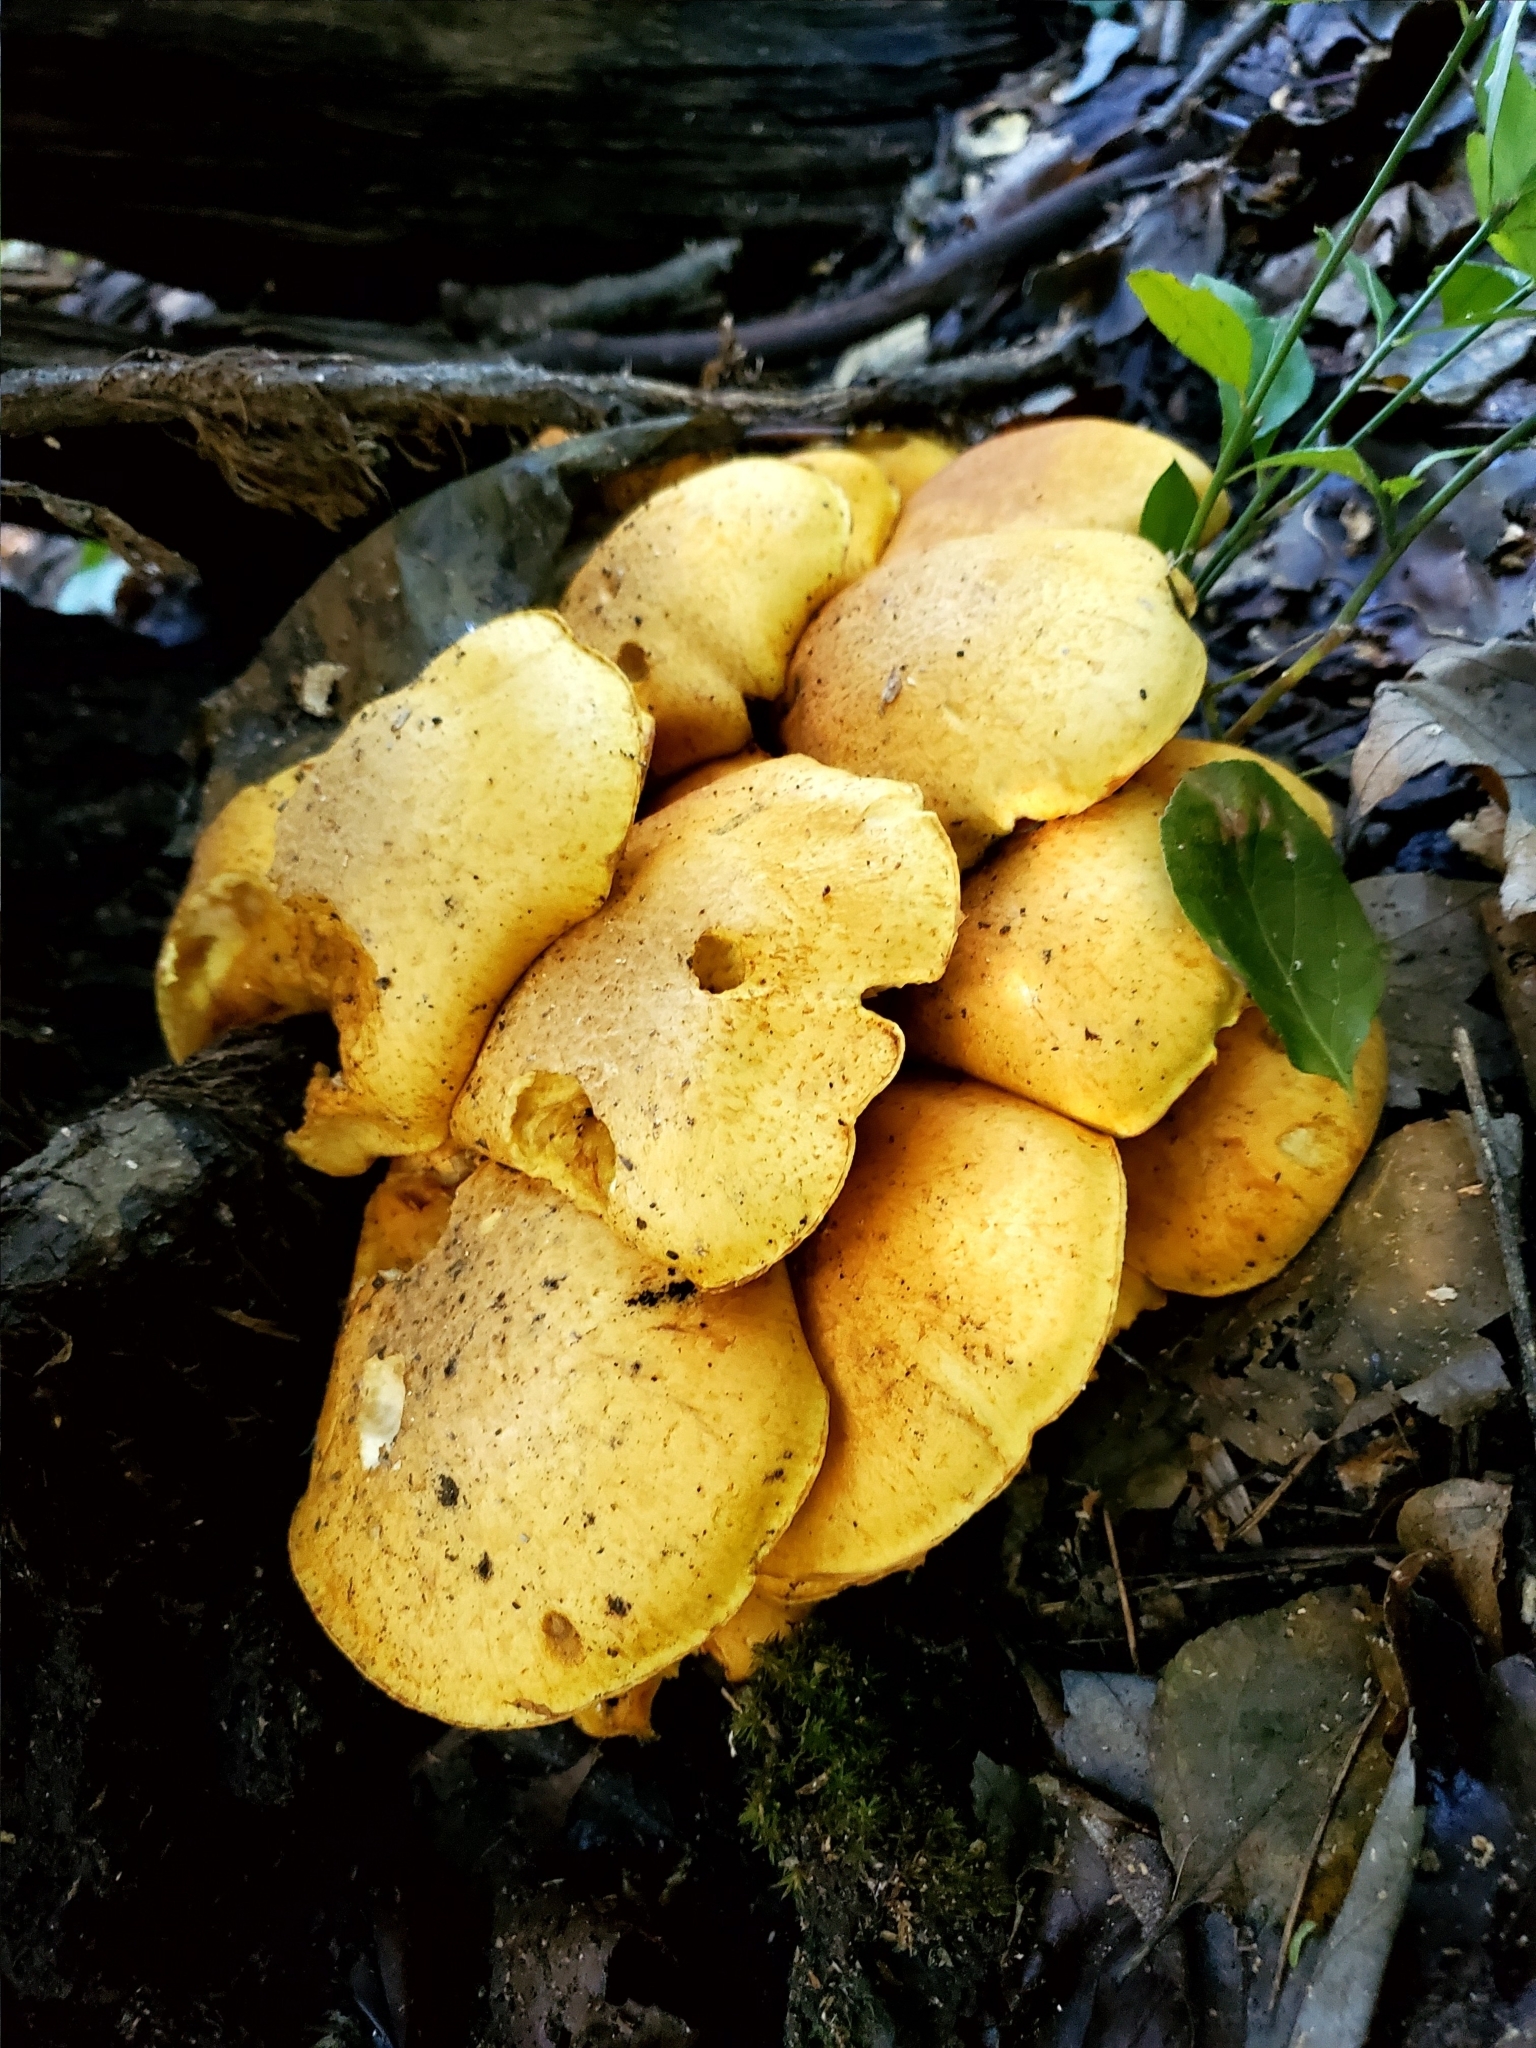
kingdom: Fungi
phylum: Basidiomycota
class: Agaricomycetes
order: Agaricales
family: Hymenogastraceae
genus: Gymnopilus
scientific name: Gymnopilus subspectabilis
